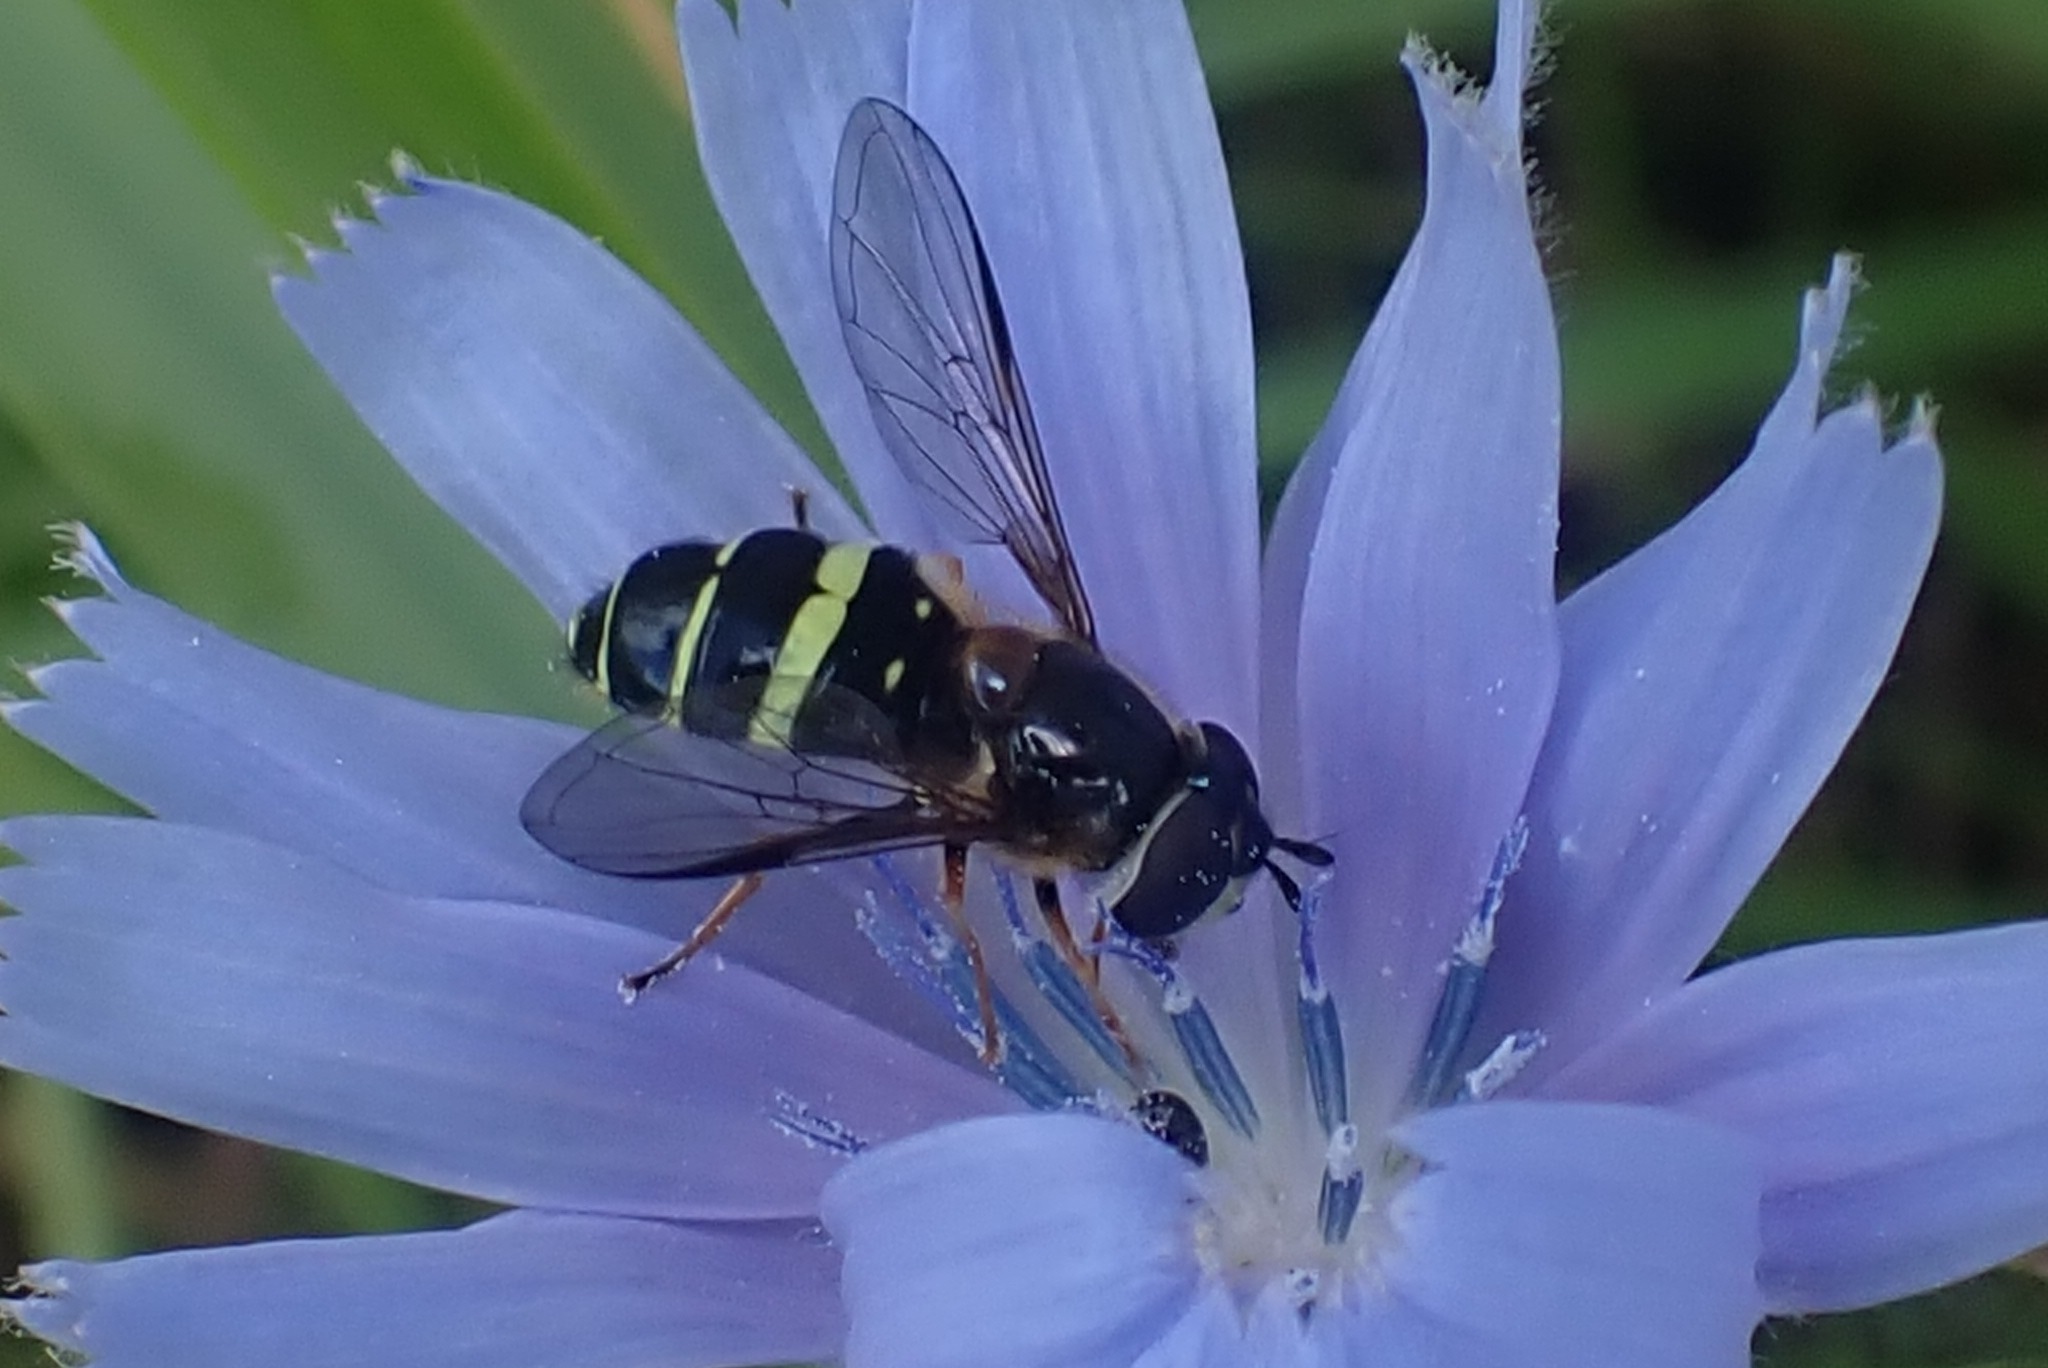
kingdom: Animalia
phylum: Arthropoda
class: Insecta
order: Diptera
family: Syrphidae
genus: Dasysyrphus
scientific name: Dasysyrphus tricinctus
